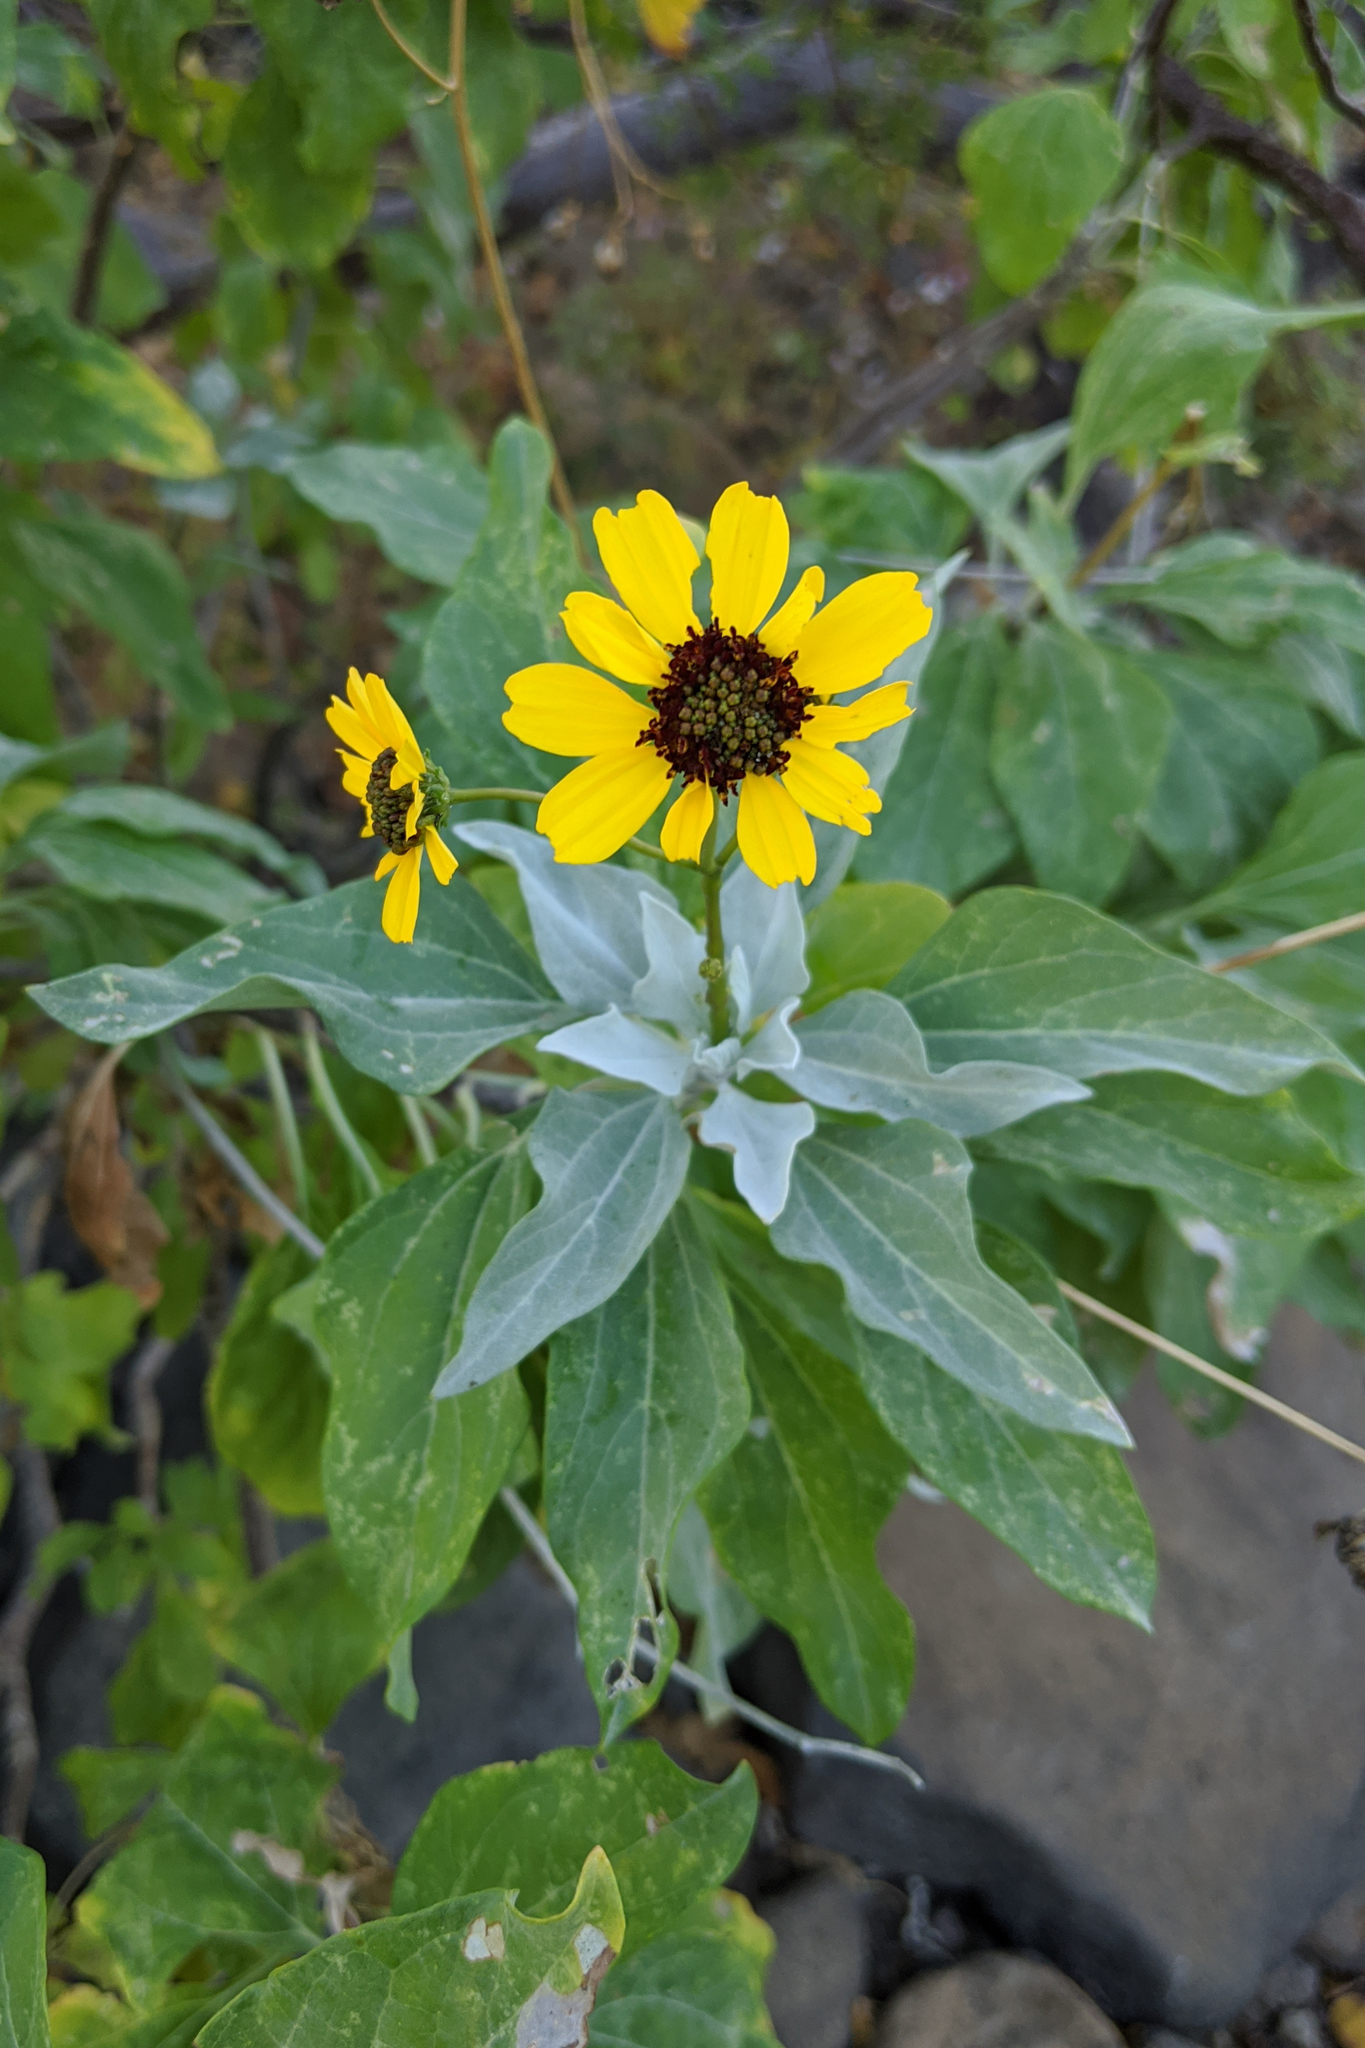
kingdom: Plantae
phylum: Tracheophyta
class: Magnoliopsida
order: Asterales
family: Asteraceae
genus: Encelia
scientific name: Encelia farinosa
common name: Brittlebush
